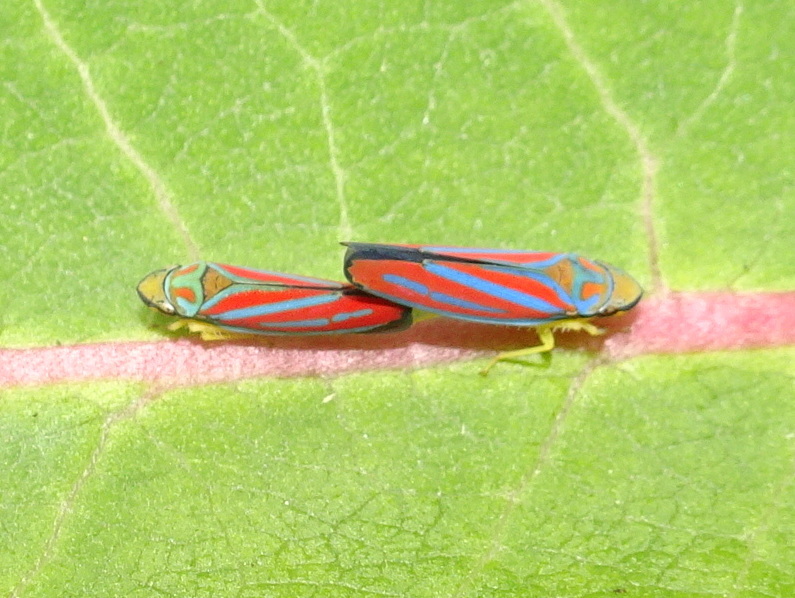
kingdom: Animalia
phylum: Arthropoda
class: Insecta
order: Hemiptera
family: Cicadellidae
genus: Graphocephala
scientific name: Graphocephala coccinea
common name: Candy-striped leafhopper
